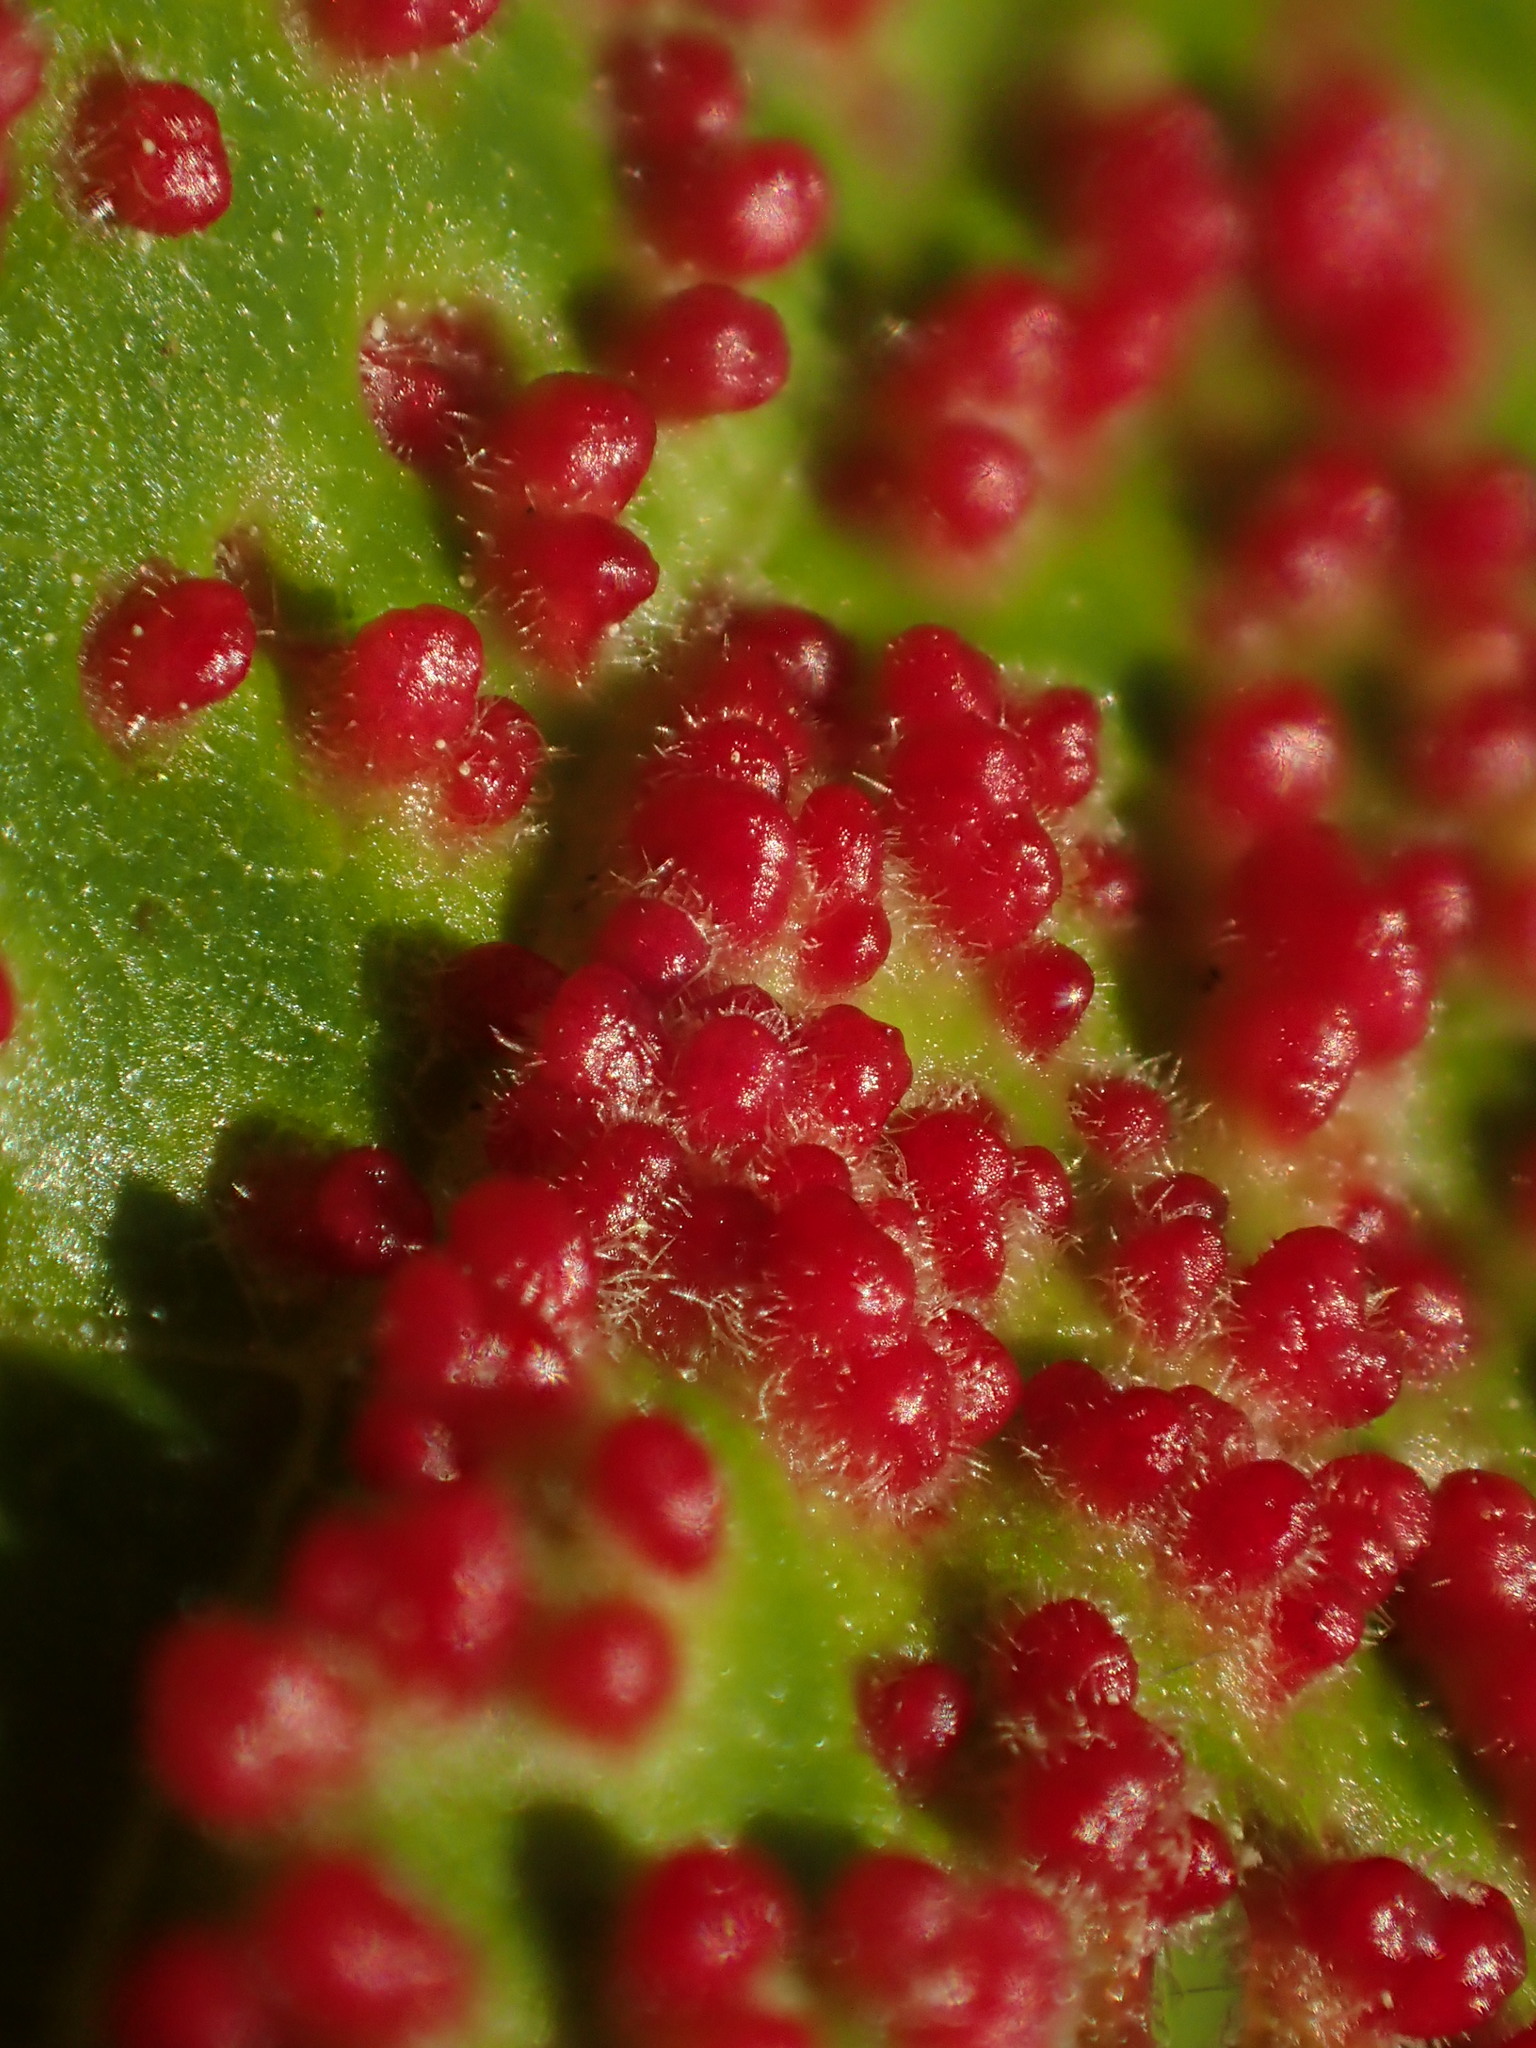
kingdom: Animalia
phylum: Arthropoda
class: Arachnida
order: Trombidiformes
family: Eriophyidae
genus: Aceria
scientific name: Aceria myriadeum
